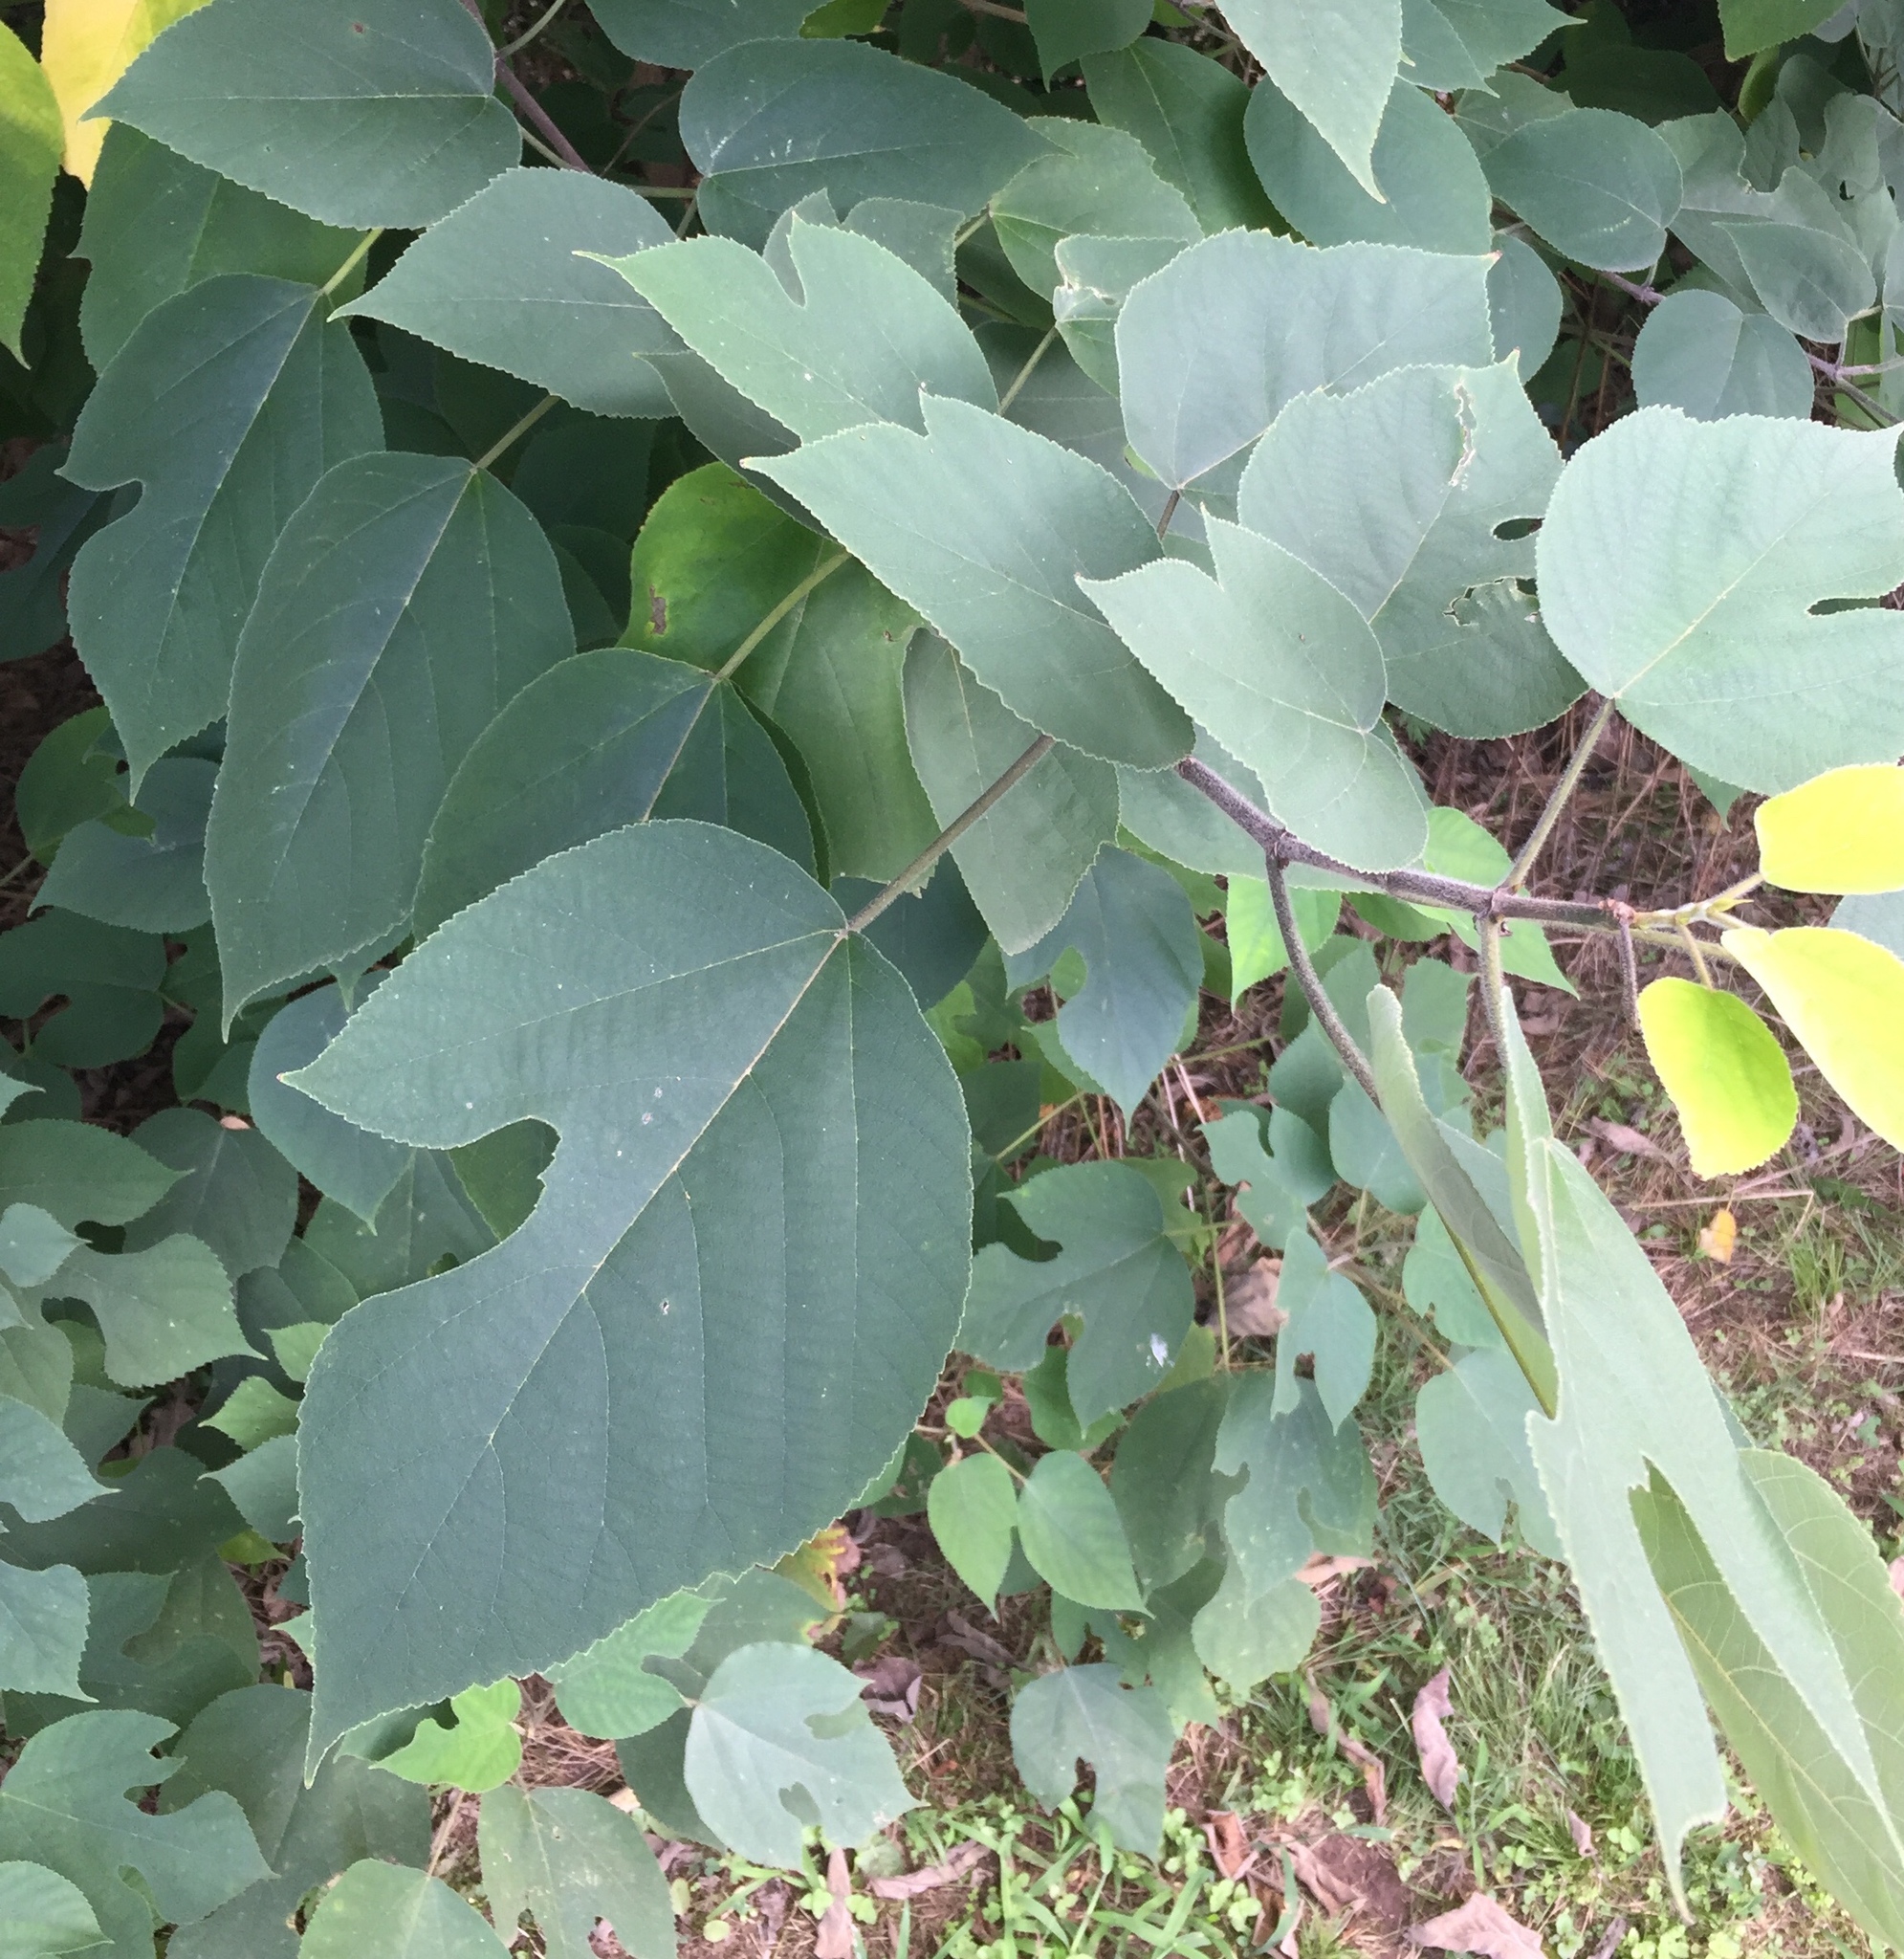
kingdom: Plantae
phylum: Tracheophyta
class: Magnoliopsida
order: Rosales
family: Moraceae
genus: Broussonetia
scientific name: Broussonetia papyrifera
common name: Paper mulberry
